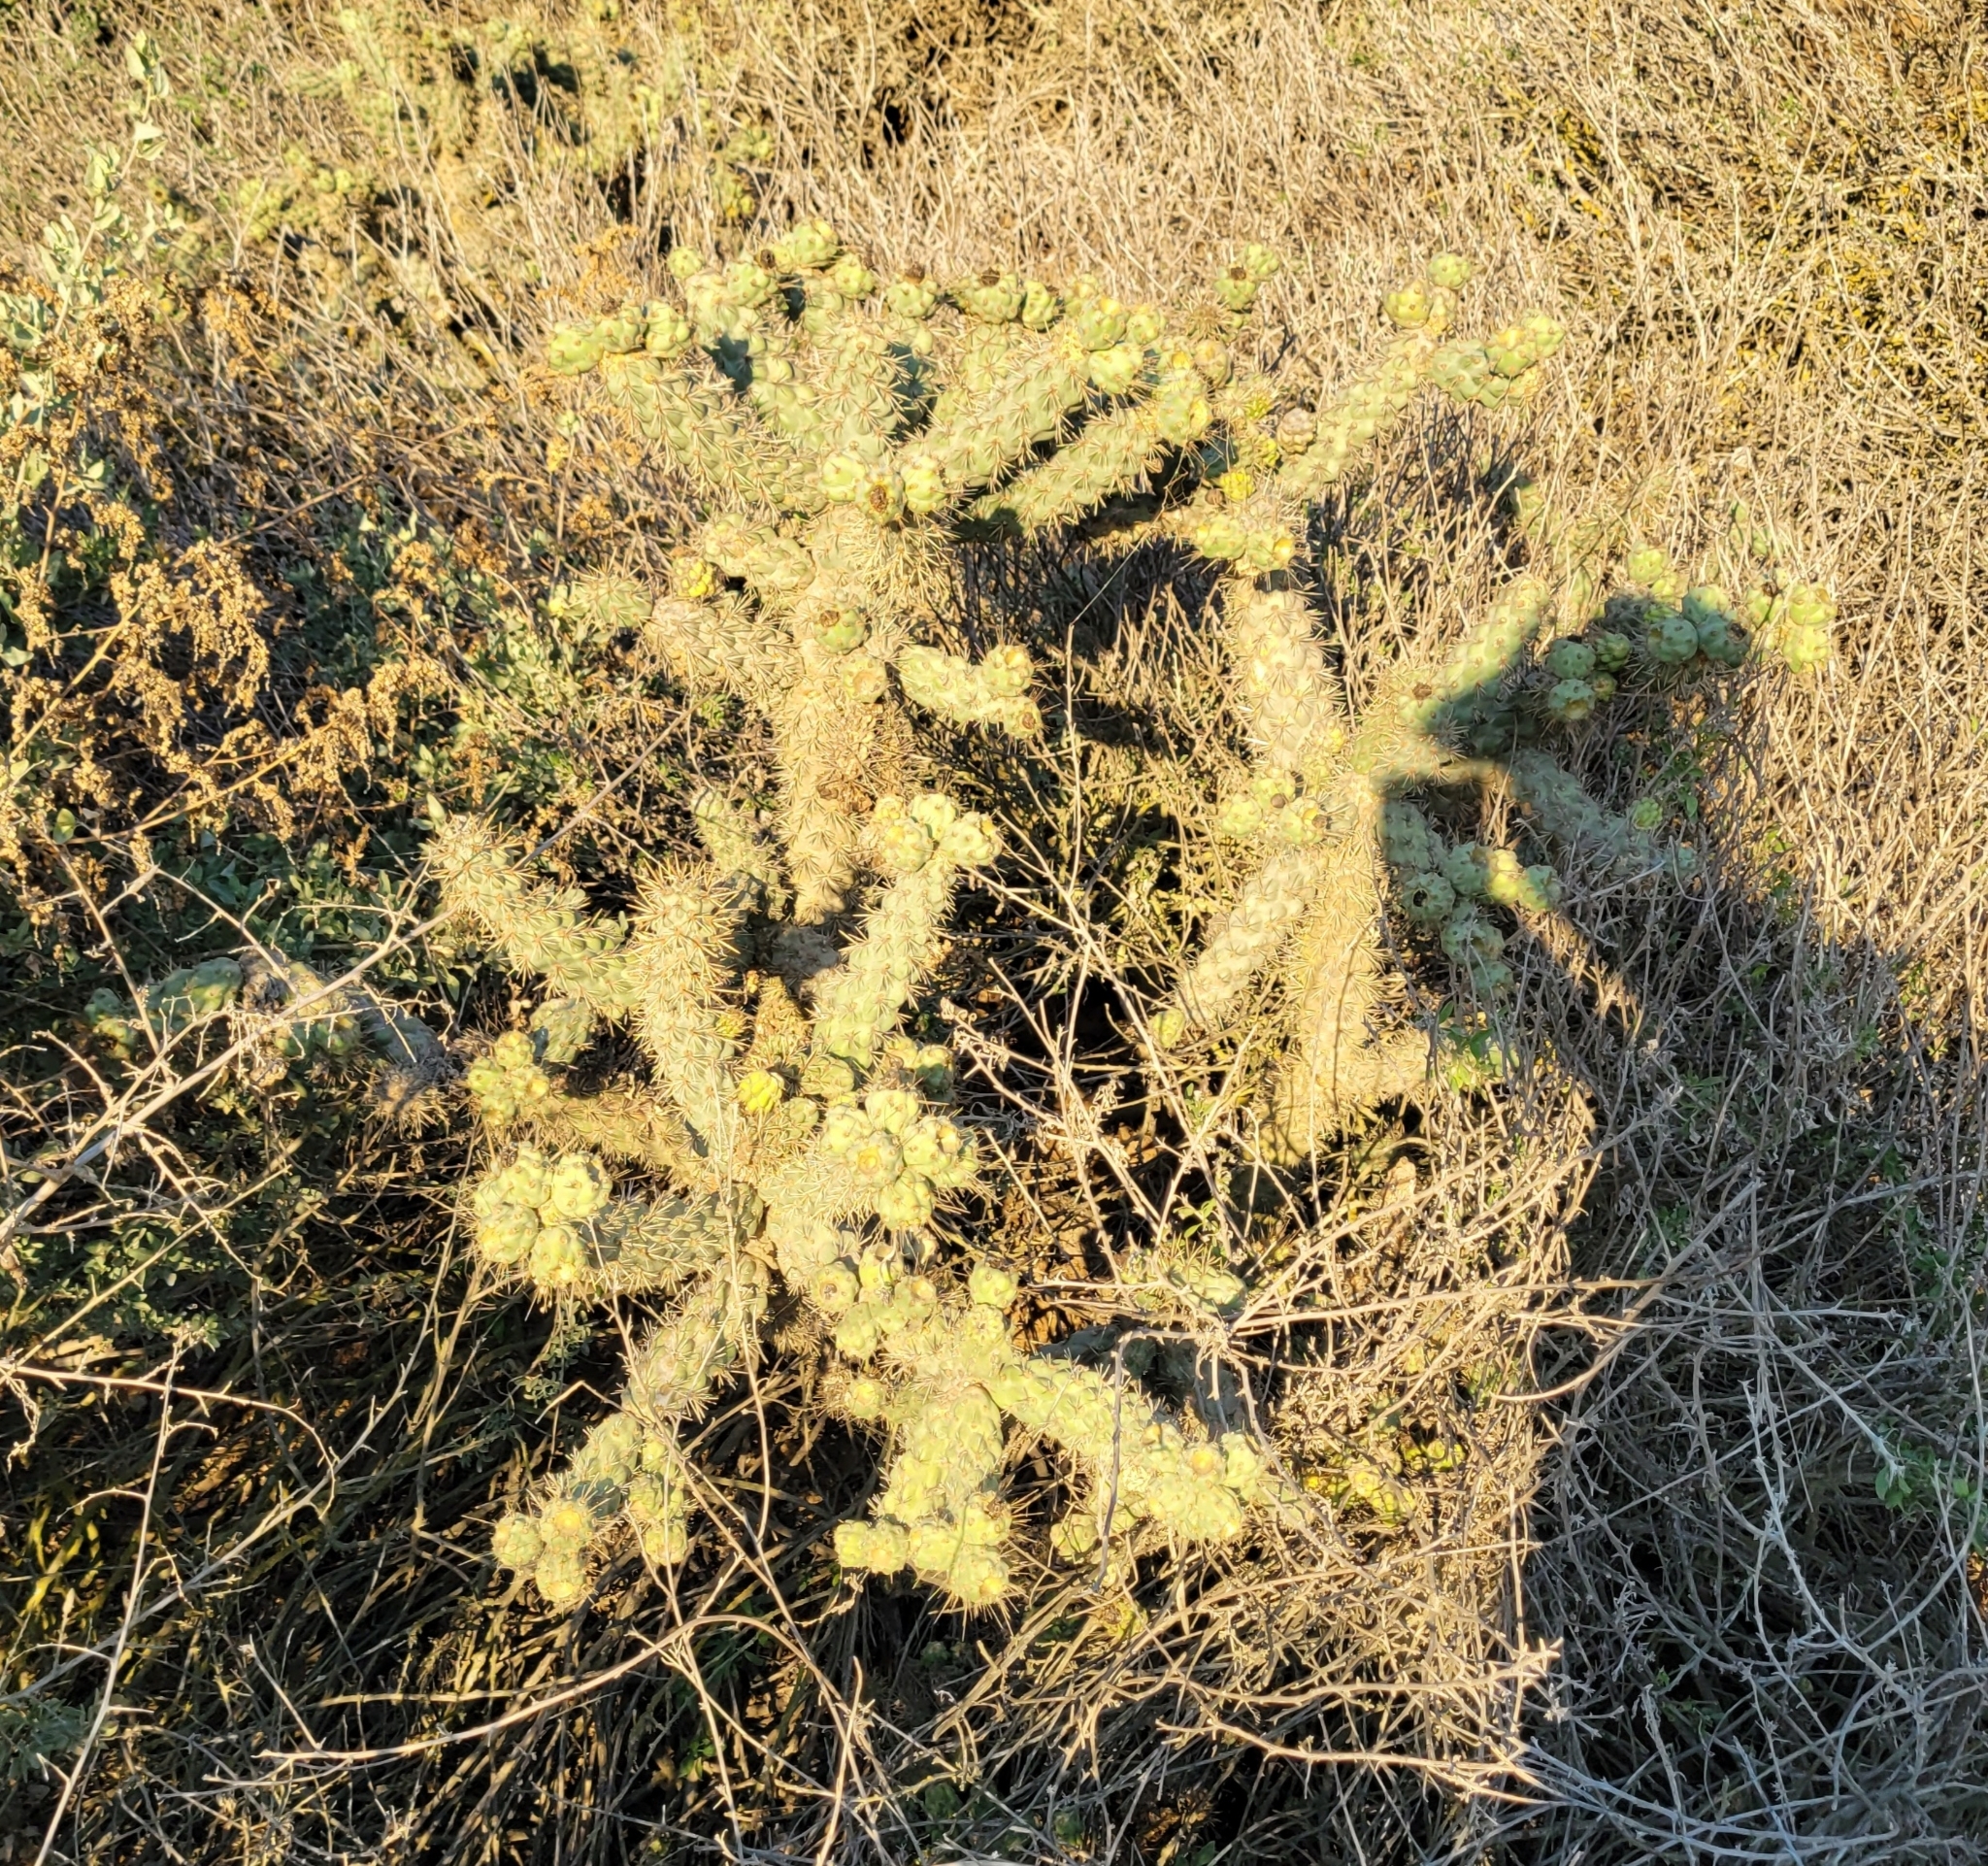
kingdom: Plantae
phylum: Tracheophyta
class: Magnoliopsida
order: Caryophyllales
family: Cactaceae
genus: Cylindropuntia
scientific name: Cylindropuntia prolifera
